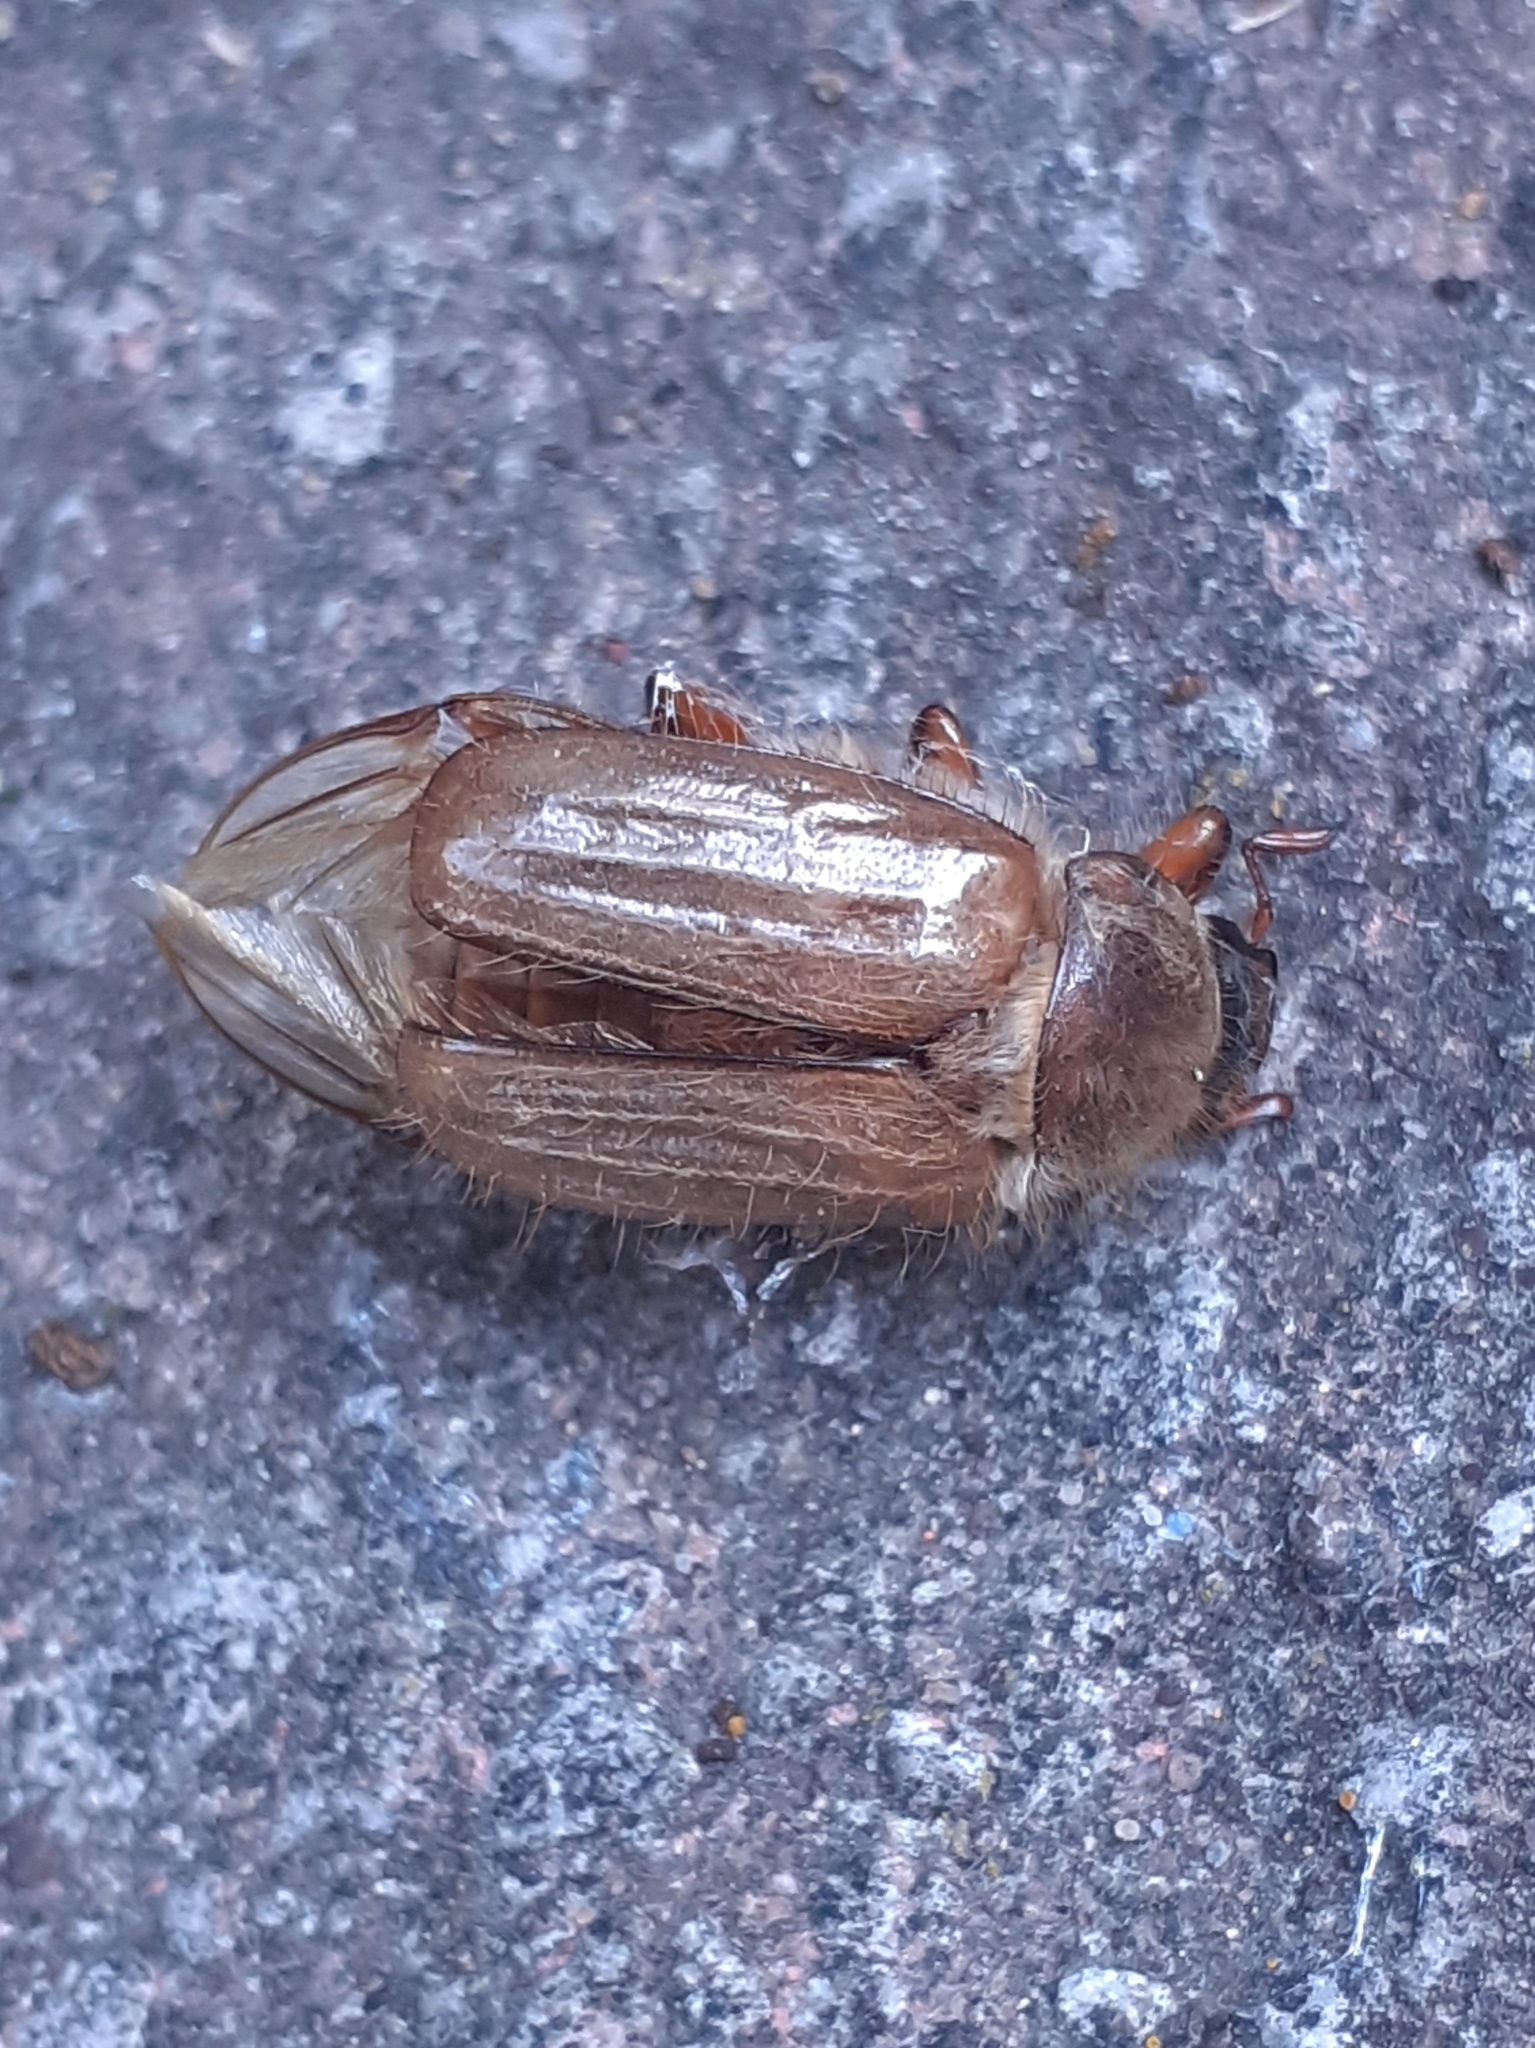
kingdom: Animalia
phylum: Arthropoda
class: Insecta
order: Coleoptera
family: Scarabaeidae
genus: Amphimallon
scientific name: Amphimallon solstitiale
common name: Summer chafer
